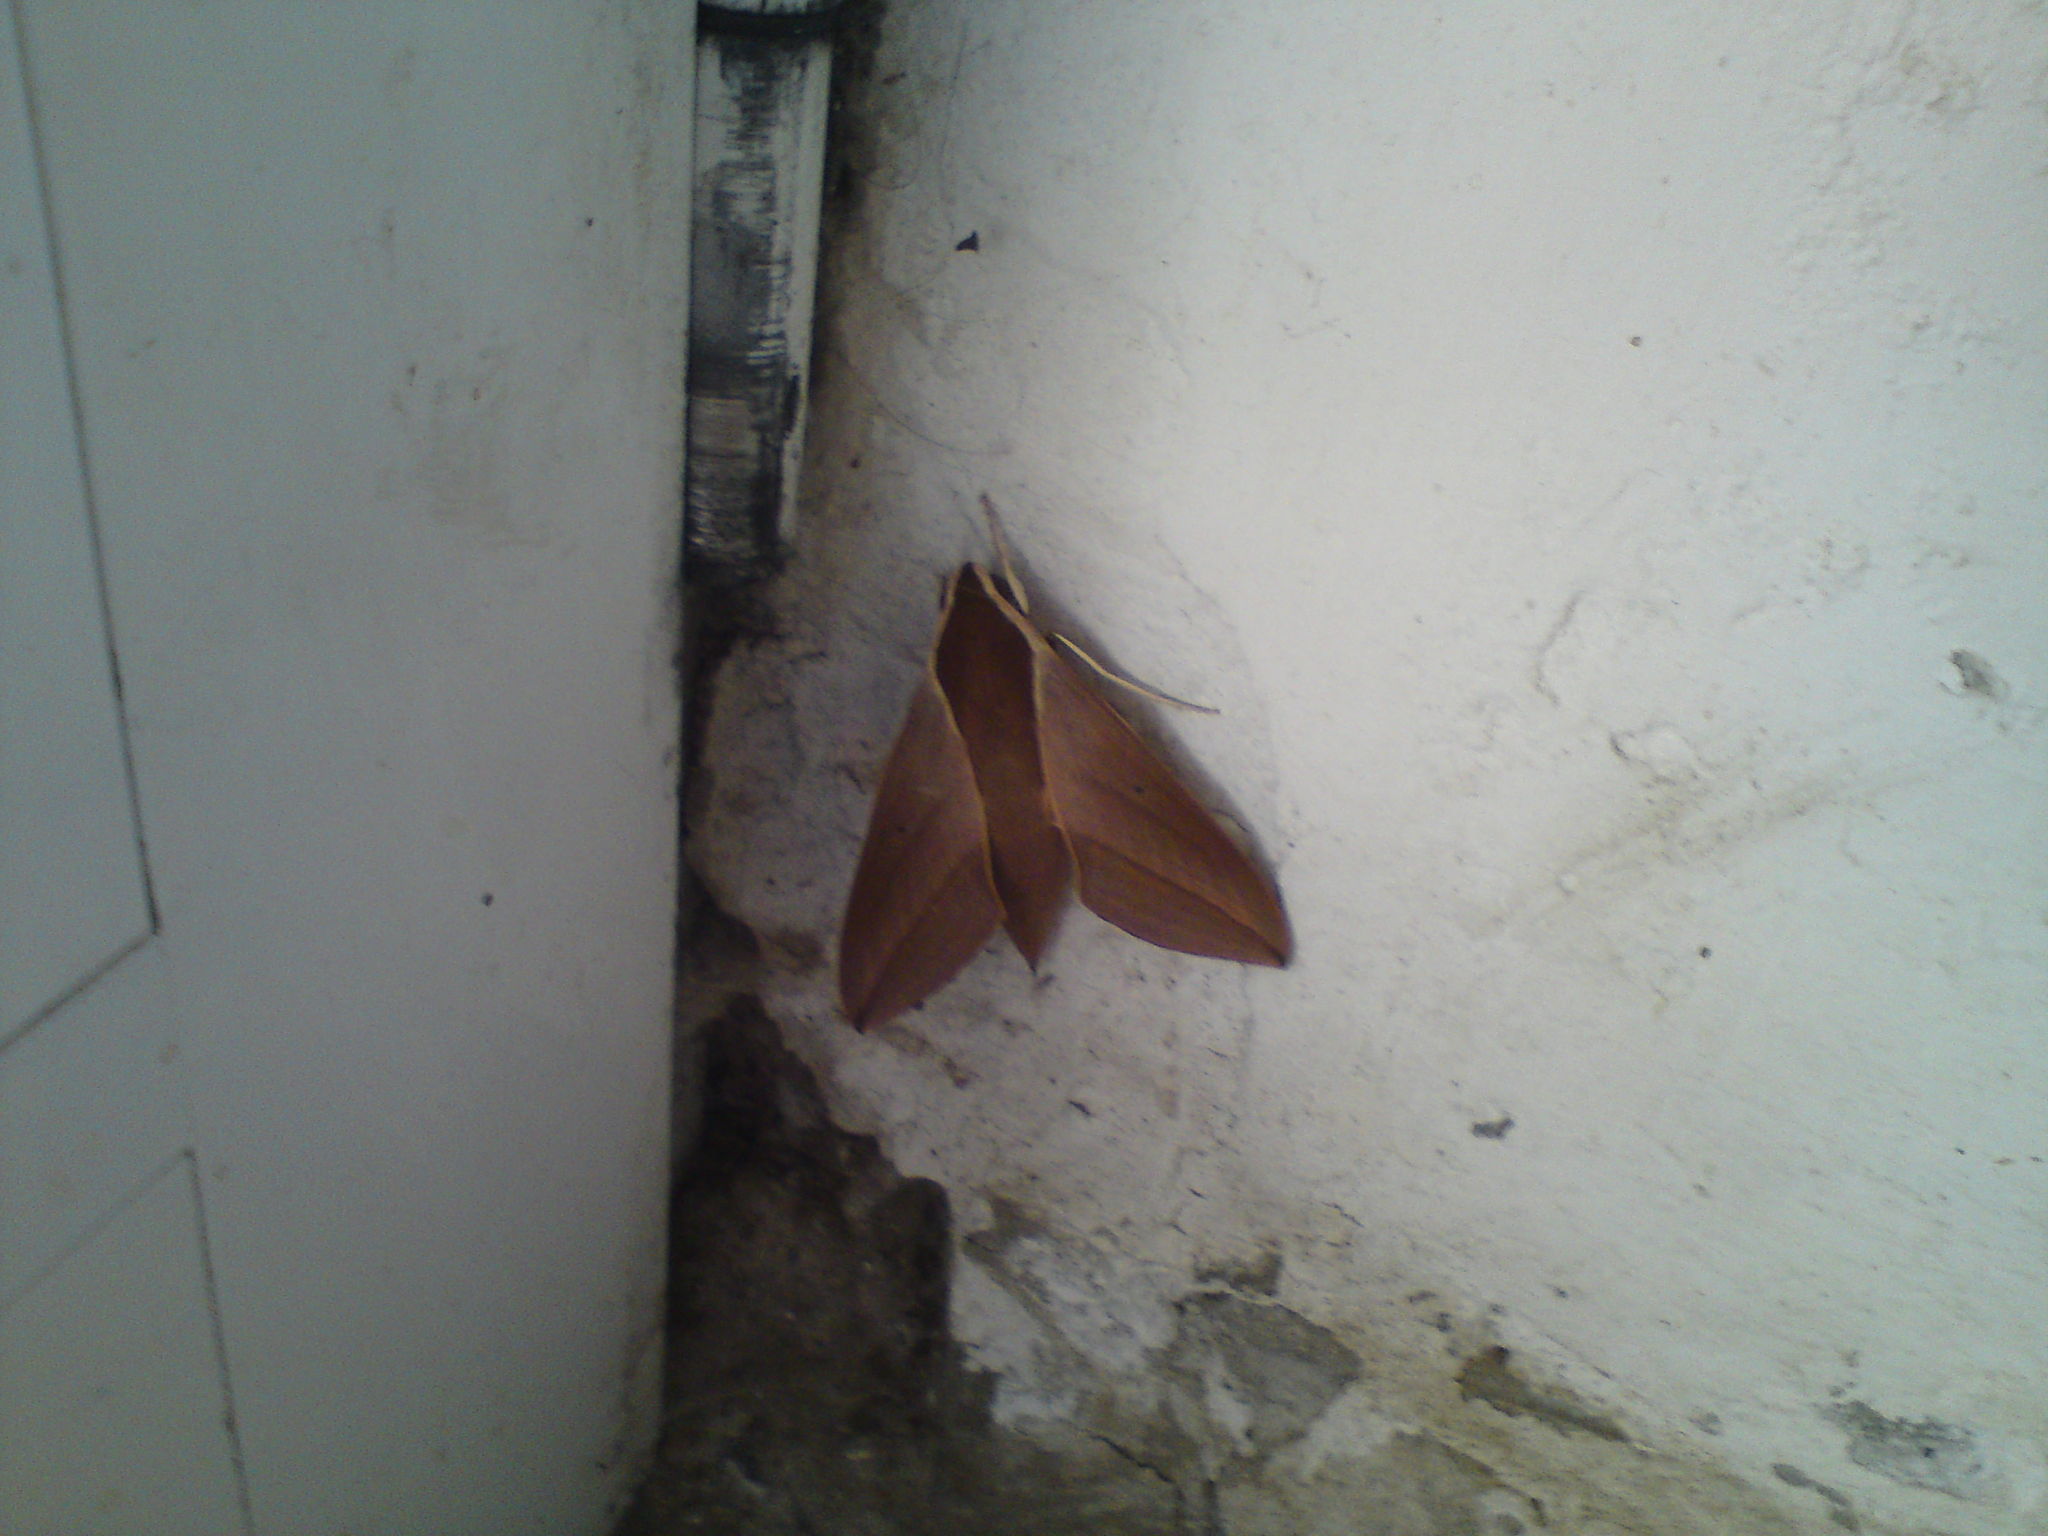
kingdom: Animalia
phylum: Arthropoda
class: Insecta
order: Lepidoptera
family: Sphingidae
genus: Theretra
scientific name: Theretra alecto
